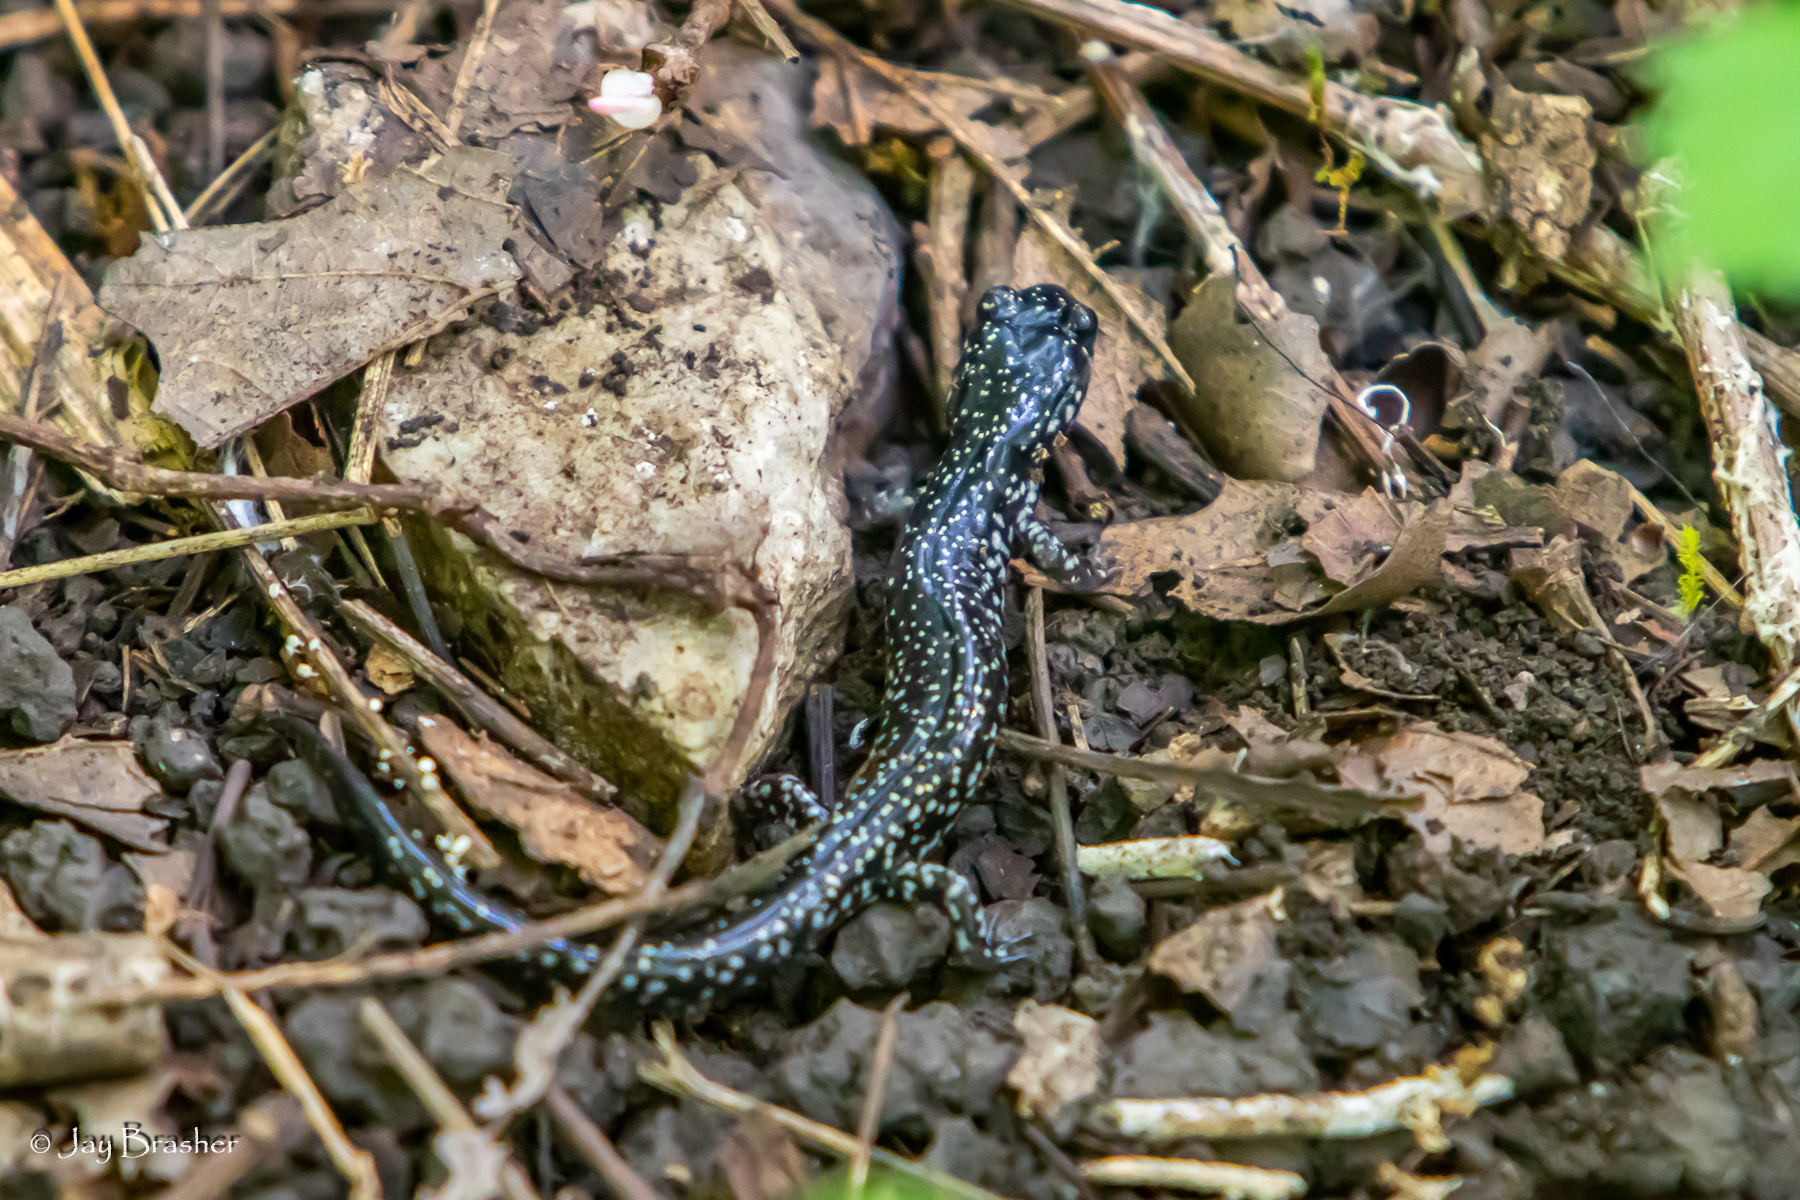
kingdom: Animalia
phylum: Chordata
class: Amphibia
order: Caudata
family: Plethodontidae
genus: Plethodon
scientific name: Plethodon glutinosus
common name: Northern slimy salamander
